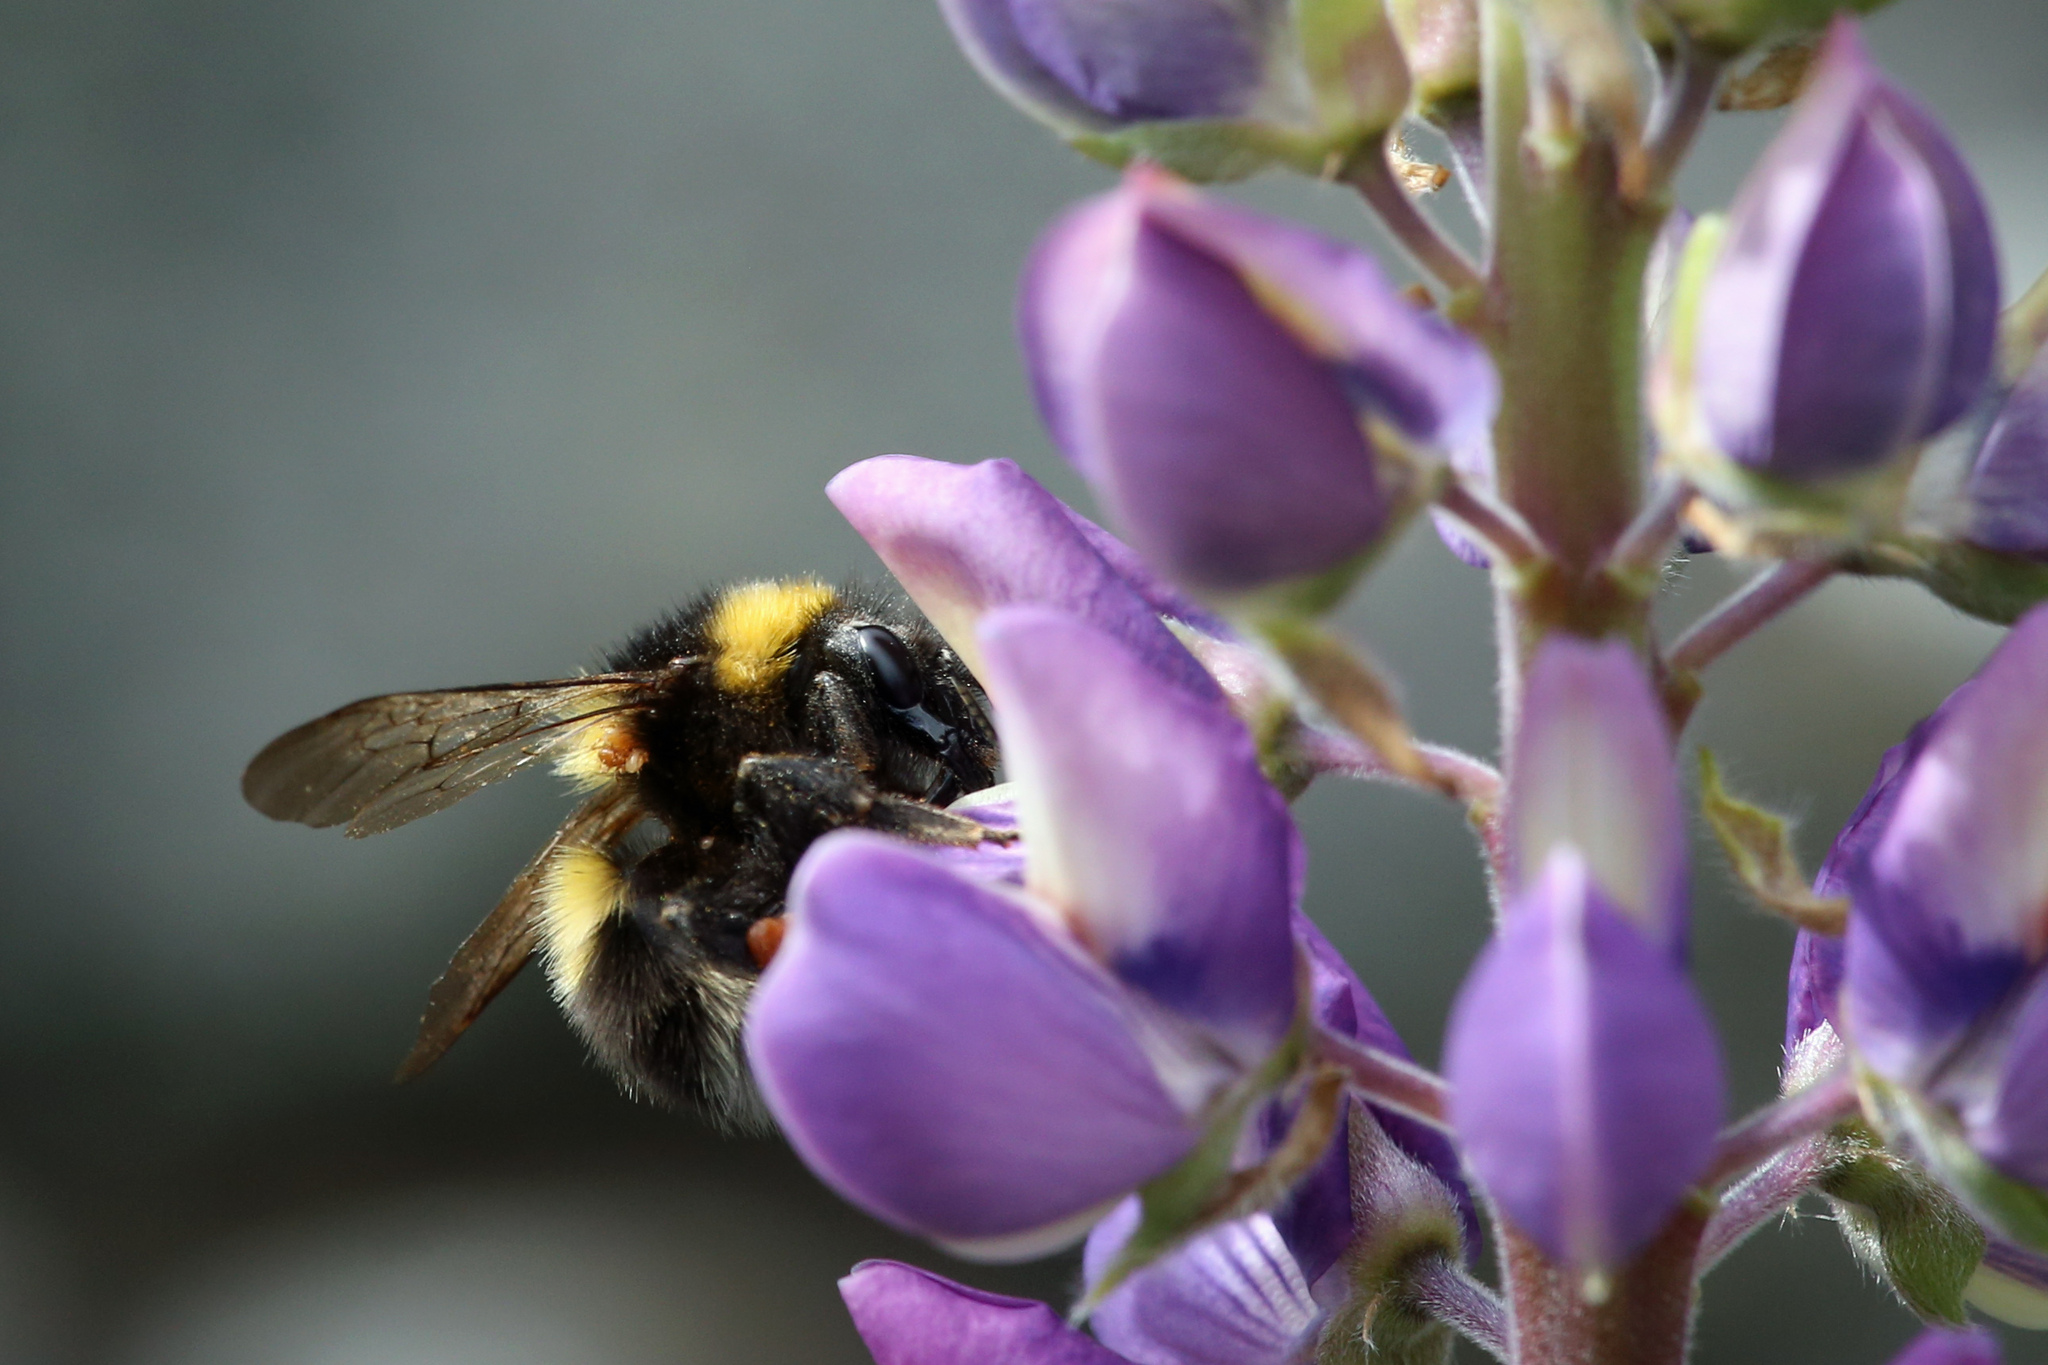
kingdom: Animalia
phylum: Arthropoda
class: Insecta
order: Hymenoptera
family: Apidae
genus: Bombus
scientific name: Bombus hortorum
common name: Garden bumblebee
